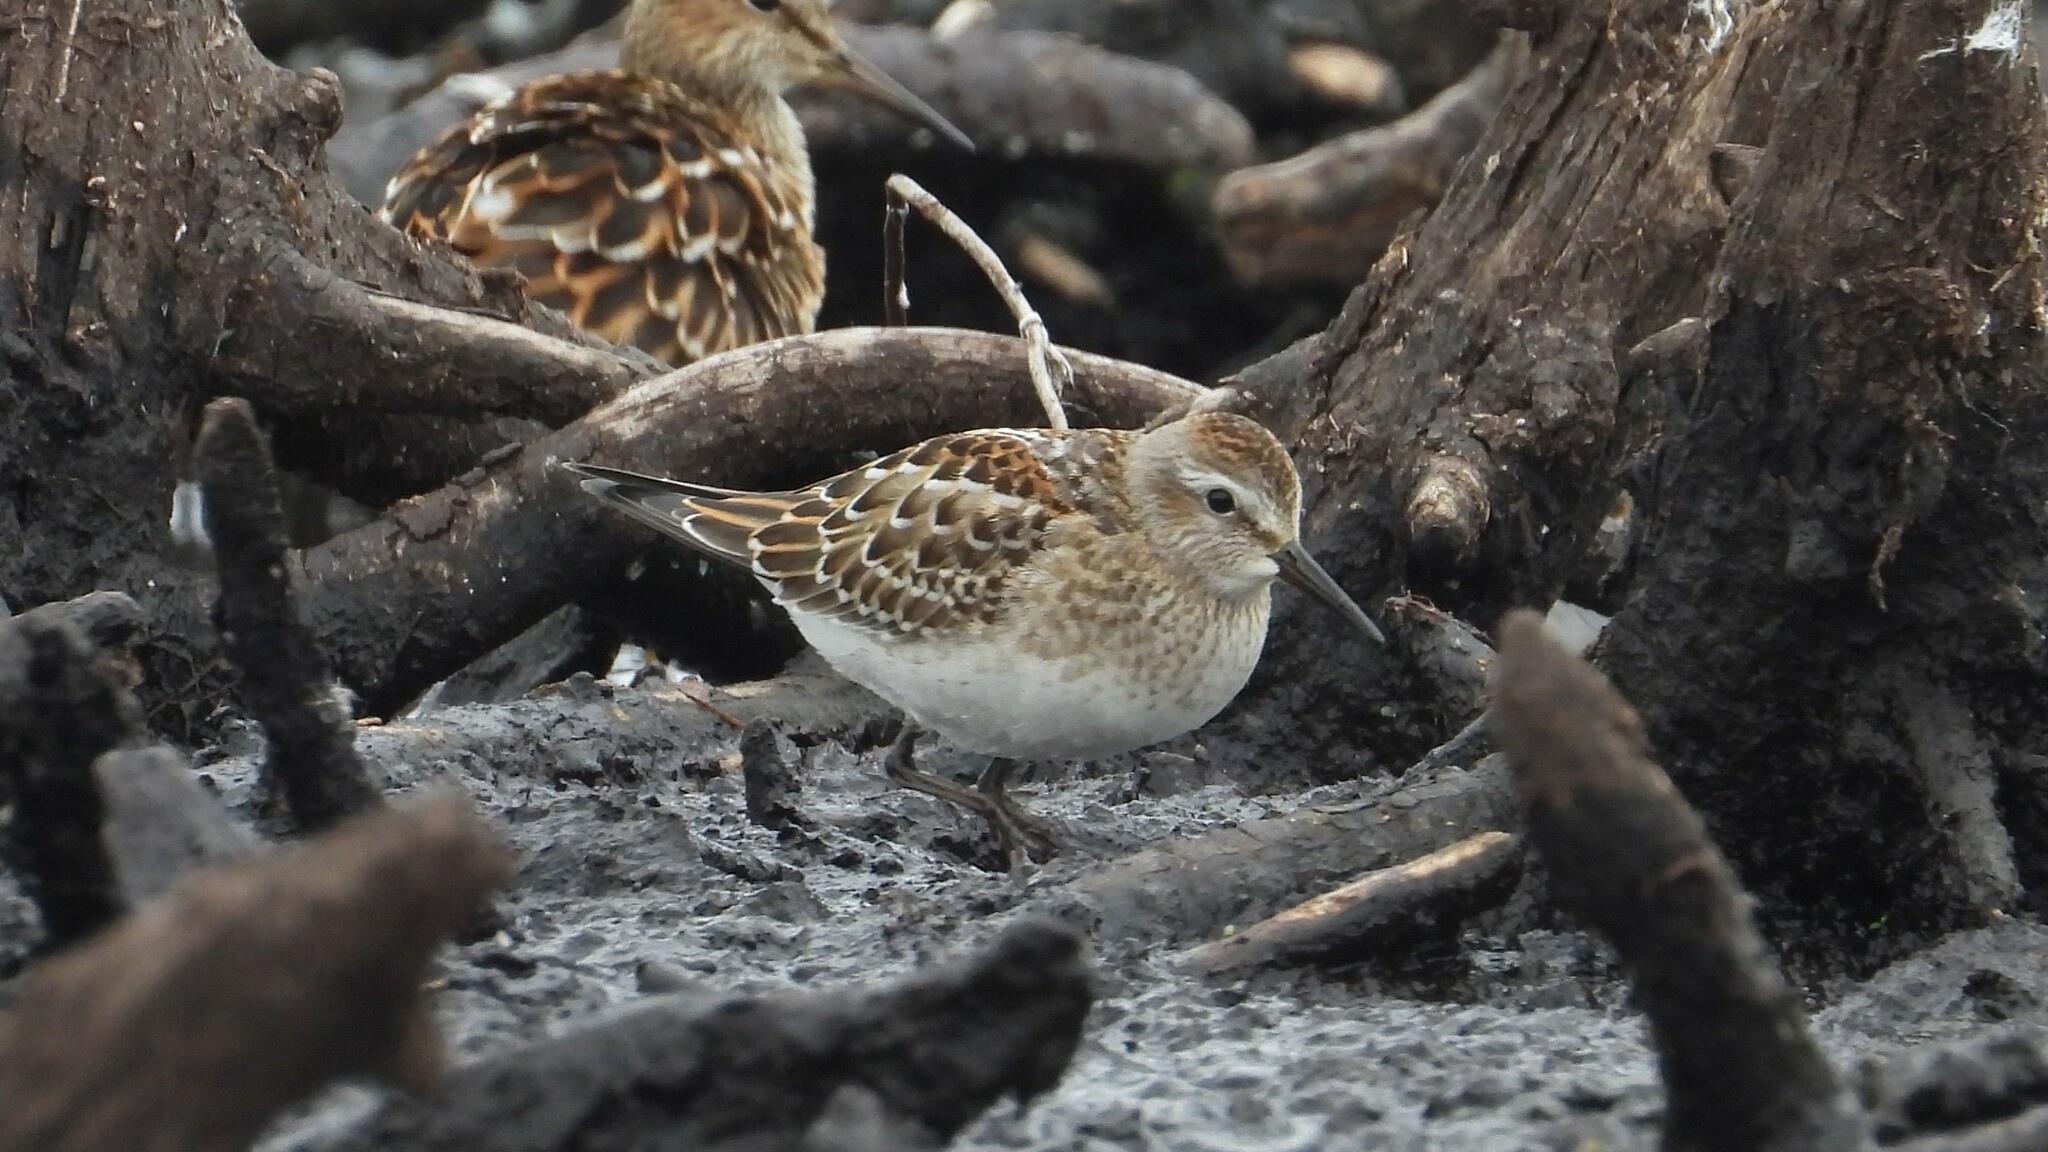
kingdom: Animalia
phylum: Chordata
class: Aves
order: Charadriiformes
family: Scolopacidae
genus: Calidris
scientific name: Calidris fuscicollis
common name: White-rumped sandpiper
